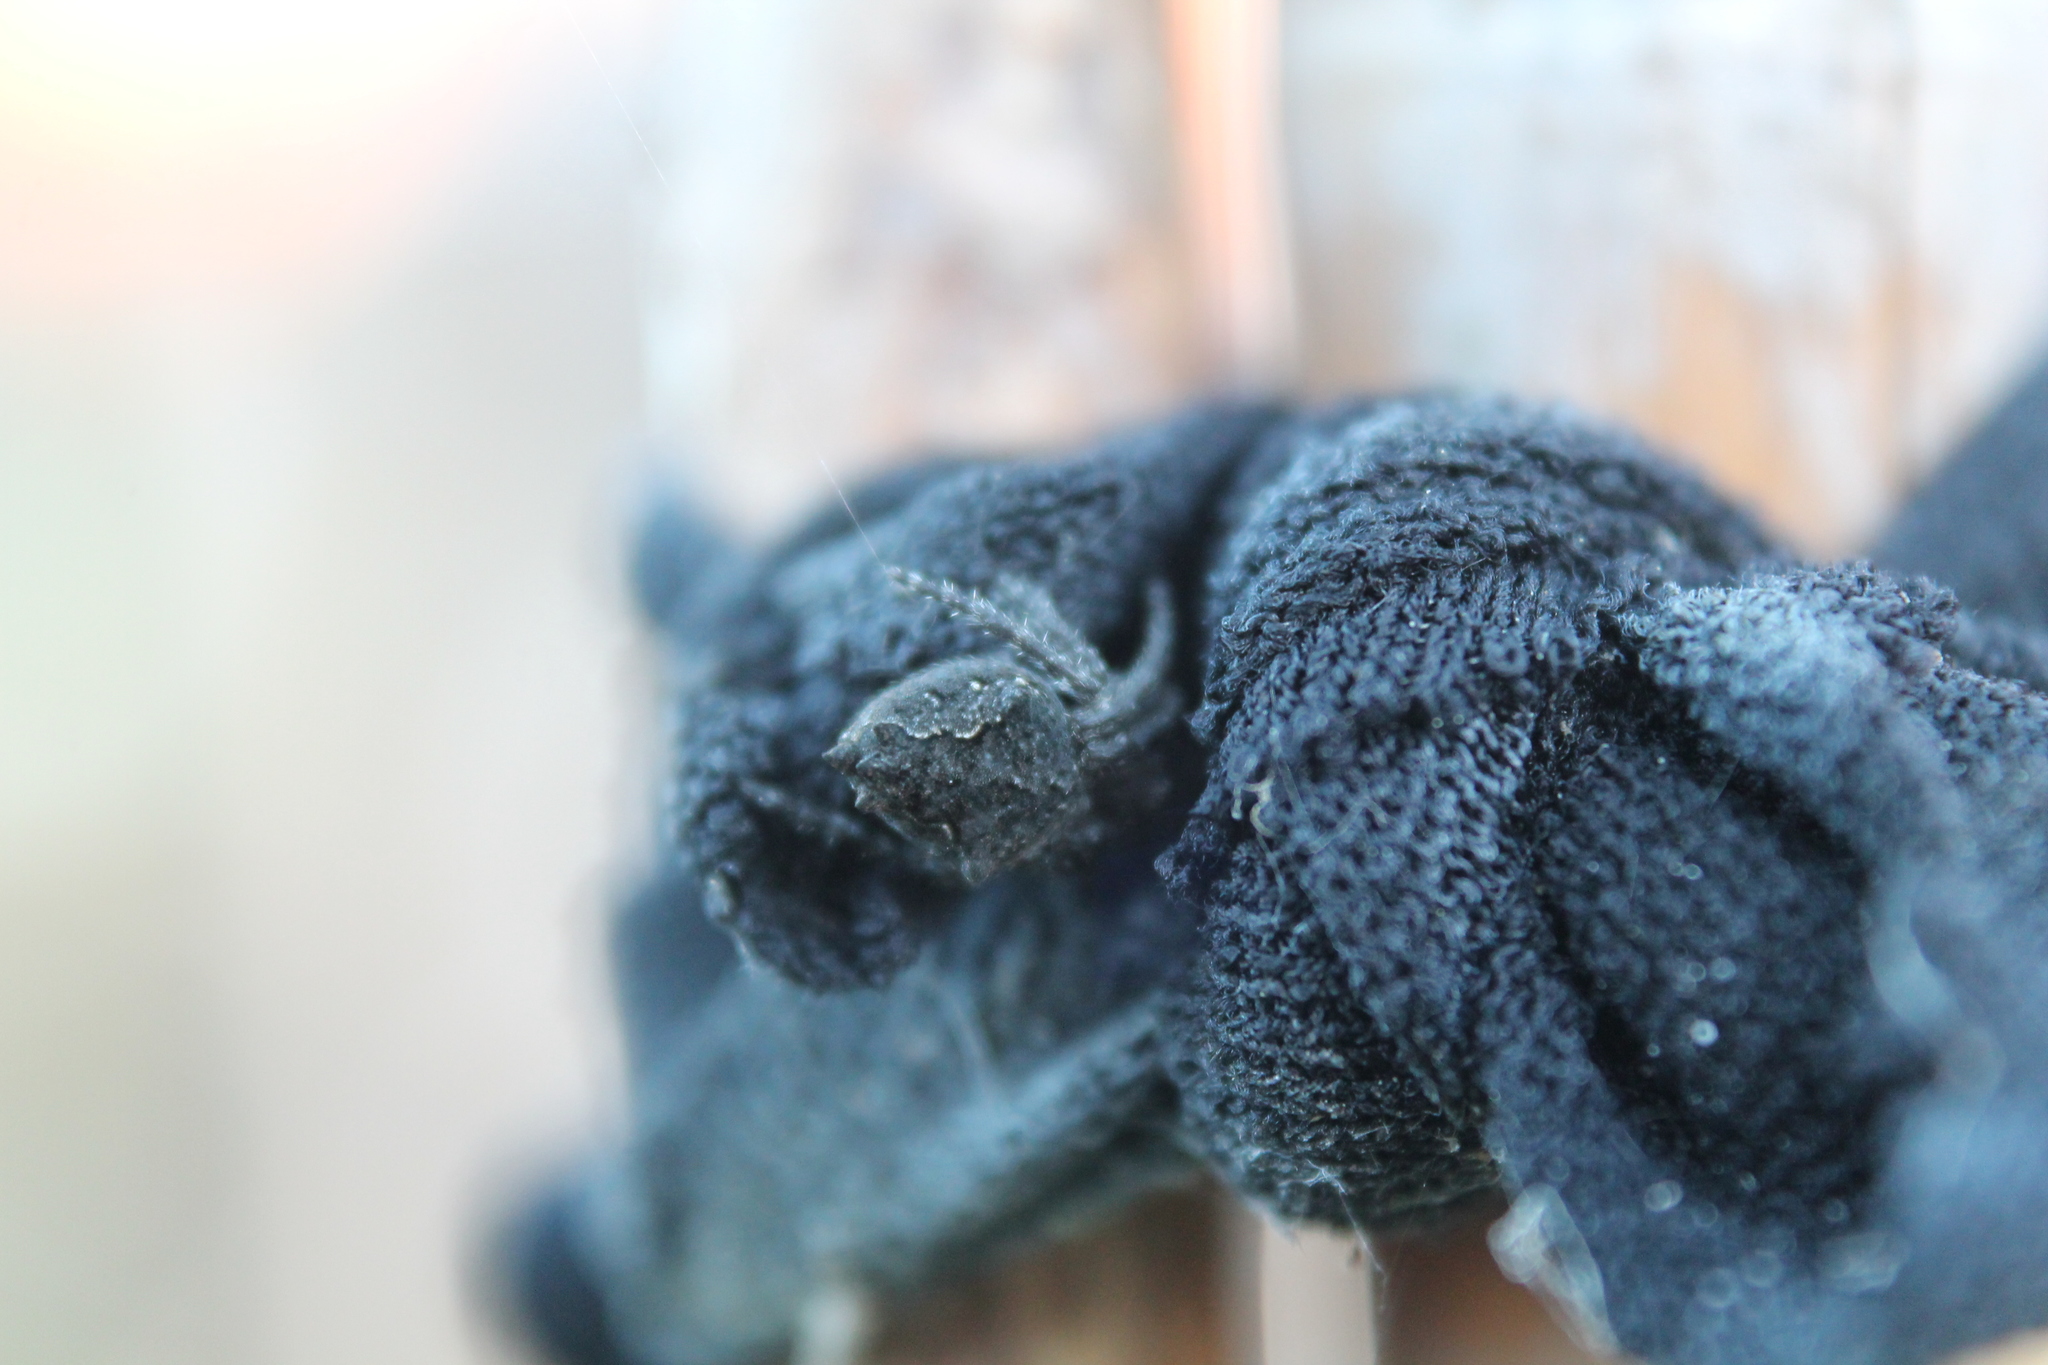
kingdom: Animalia
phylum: Arthropoda
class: Arachnida
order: Araneae
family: Araneidae
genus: Eriophora
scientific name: Eriophora pustulosa
